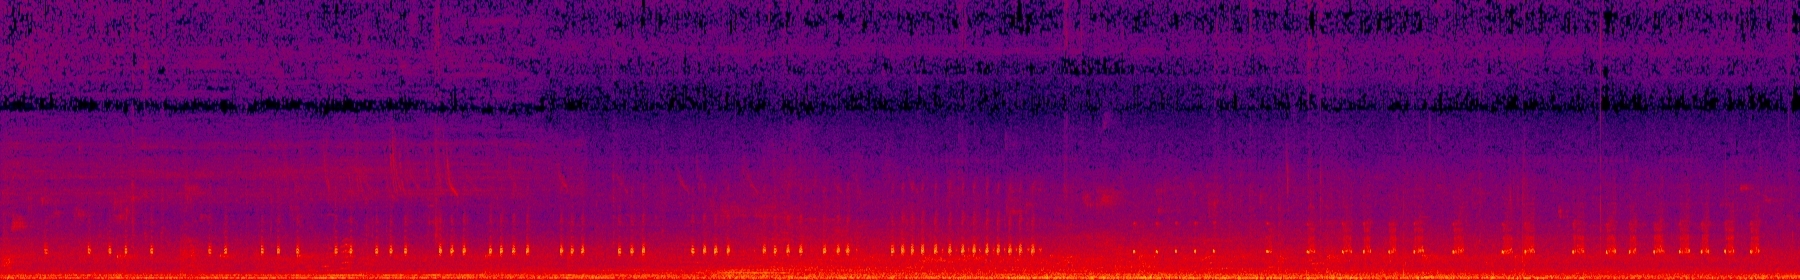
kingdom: Animalia
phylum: Chordata
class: Amphibia
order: Anura
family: Dicroglossidae
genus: Fejervarya
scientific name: Fejervarya limnocharis
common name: Asian grass frog/common pond frog/field frog/grass frog/indian rice frog
